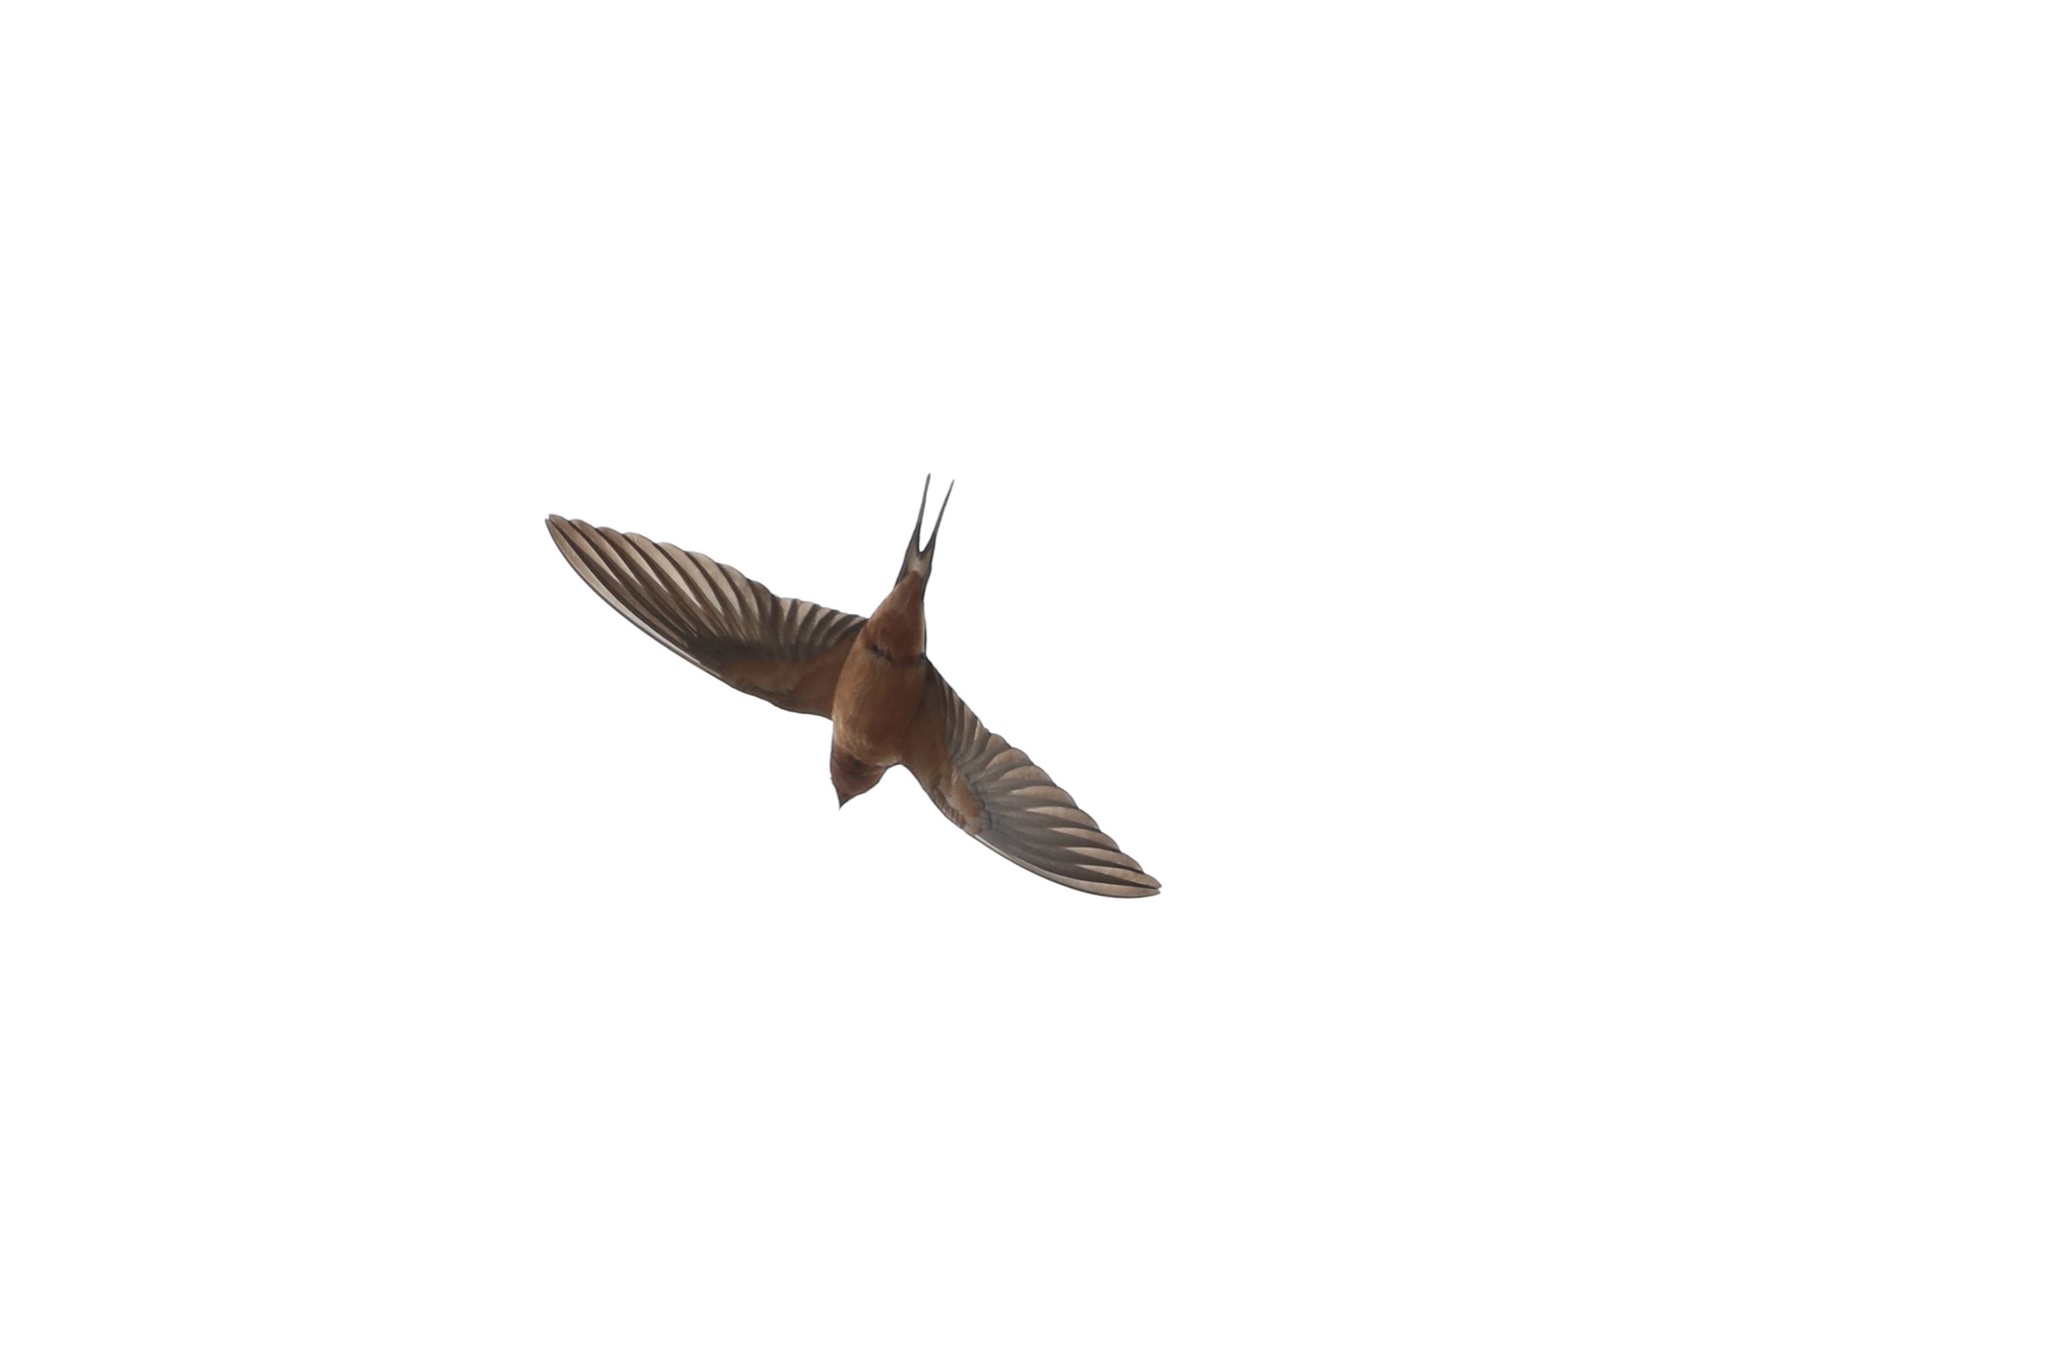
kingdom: Animalia
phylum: Chordata
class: Aves
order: Passeriformes
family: Hirundinidae
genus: Hirundo
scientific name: Hirundo rustica
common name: Barn swallow
